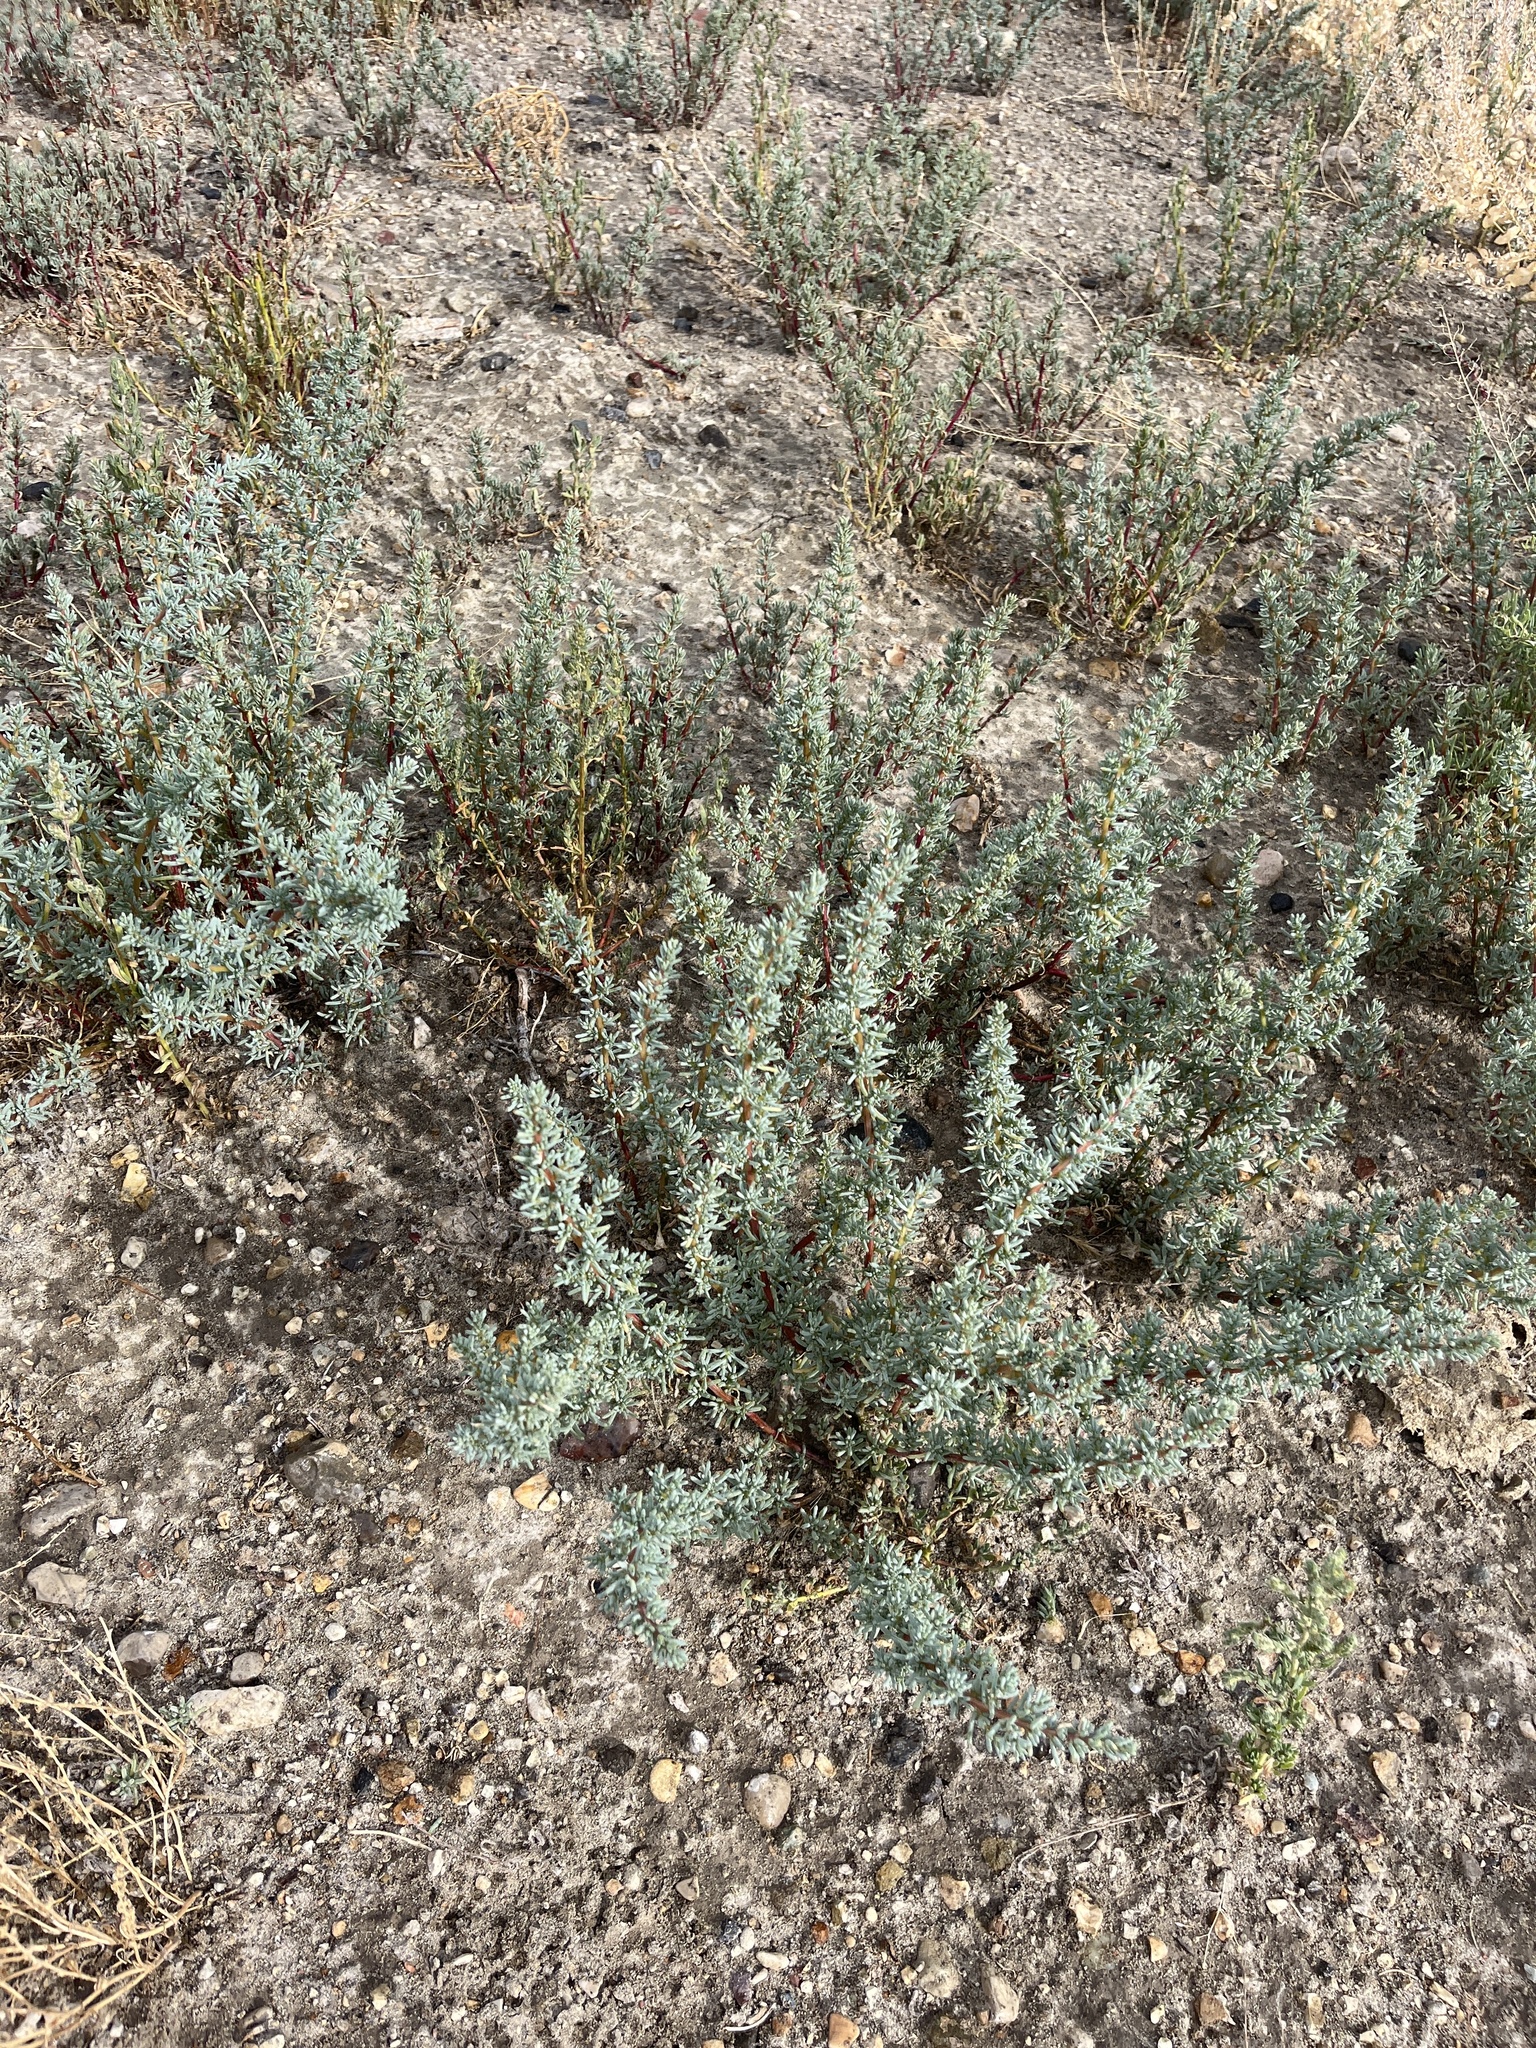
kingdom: Plantae
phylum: Tracheophyta
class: Magnoliopsida
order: Caryophyllales
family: Amaranthaceae
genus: Halogeton
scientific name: Halogeton glomeratus
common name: Saltlover
